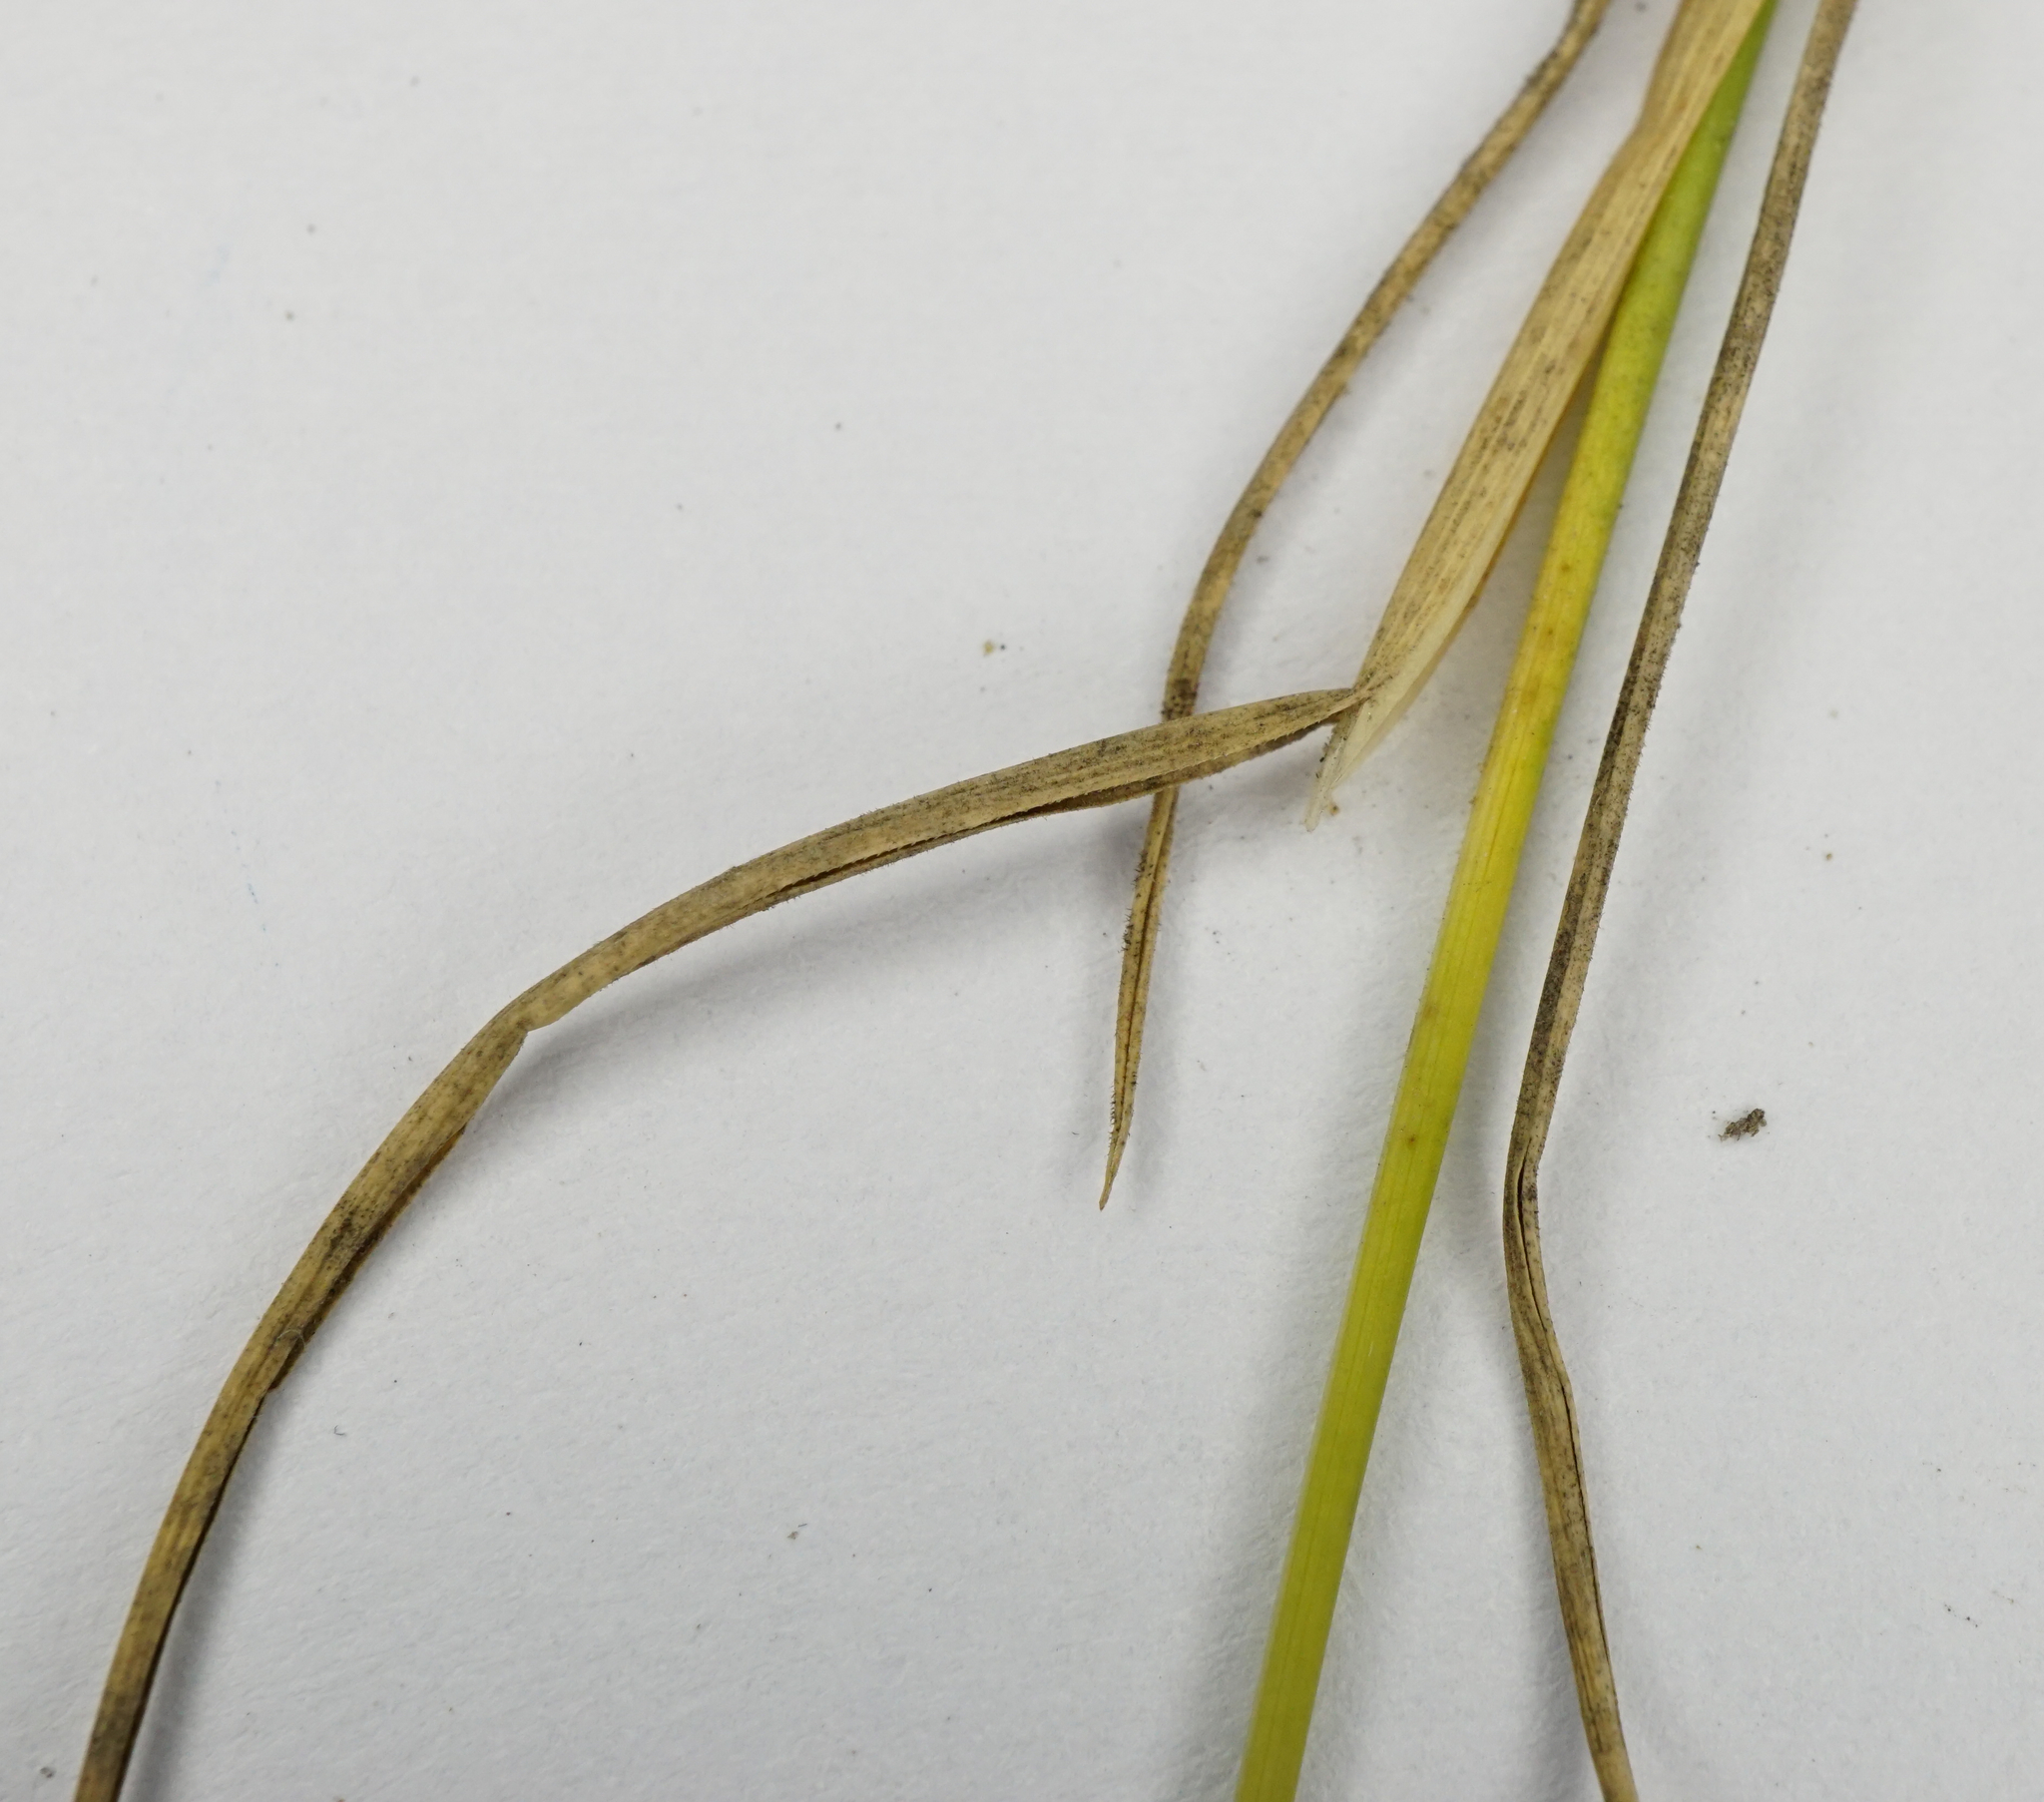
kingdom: Plantae
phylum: Tracheophyta
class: Liliopsida
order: Poales
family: Poaceae
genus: Puccinellia
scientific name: Puccinellia distans
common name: Weeping alkaligrass
